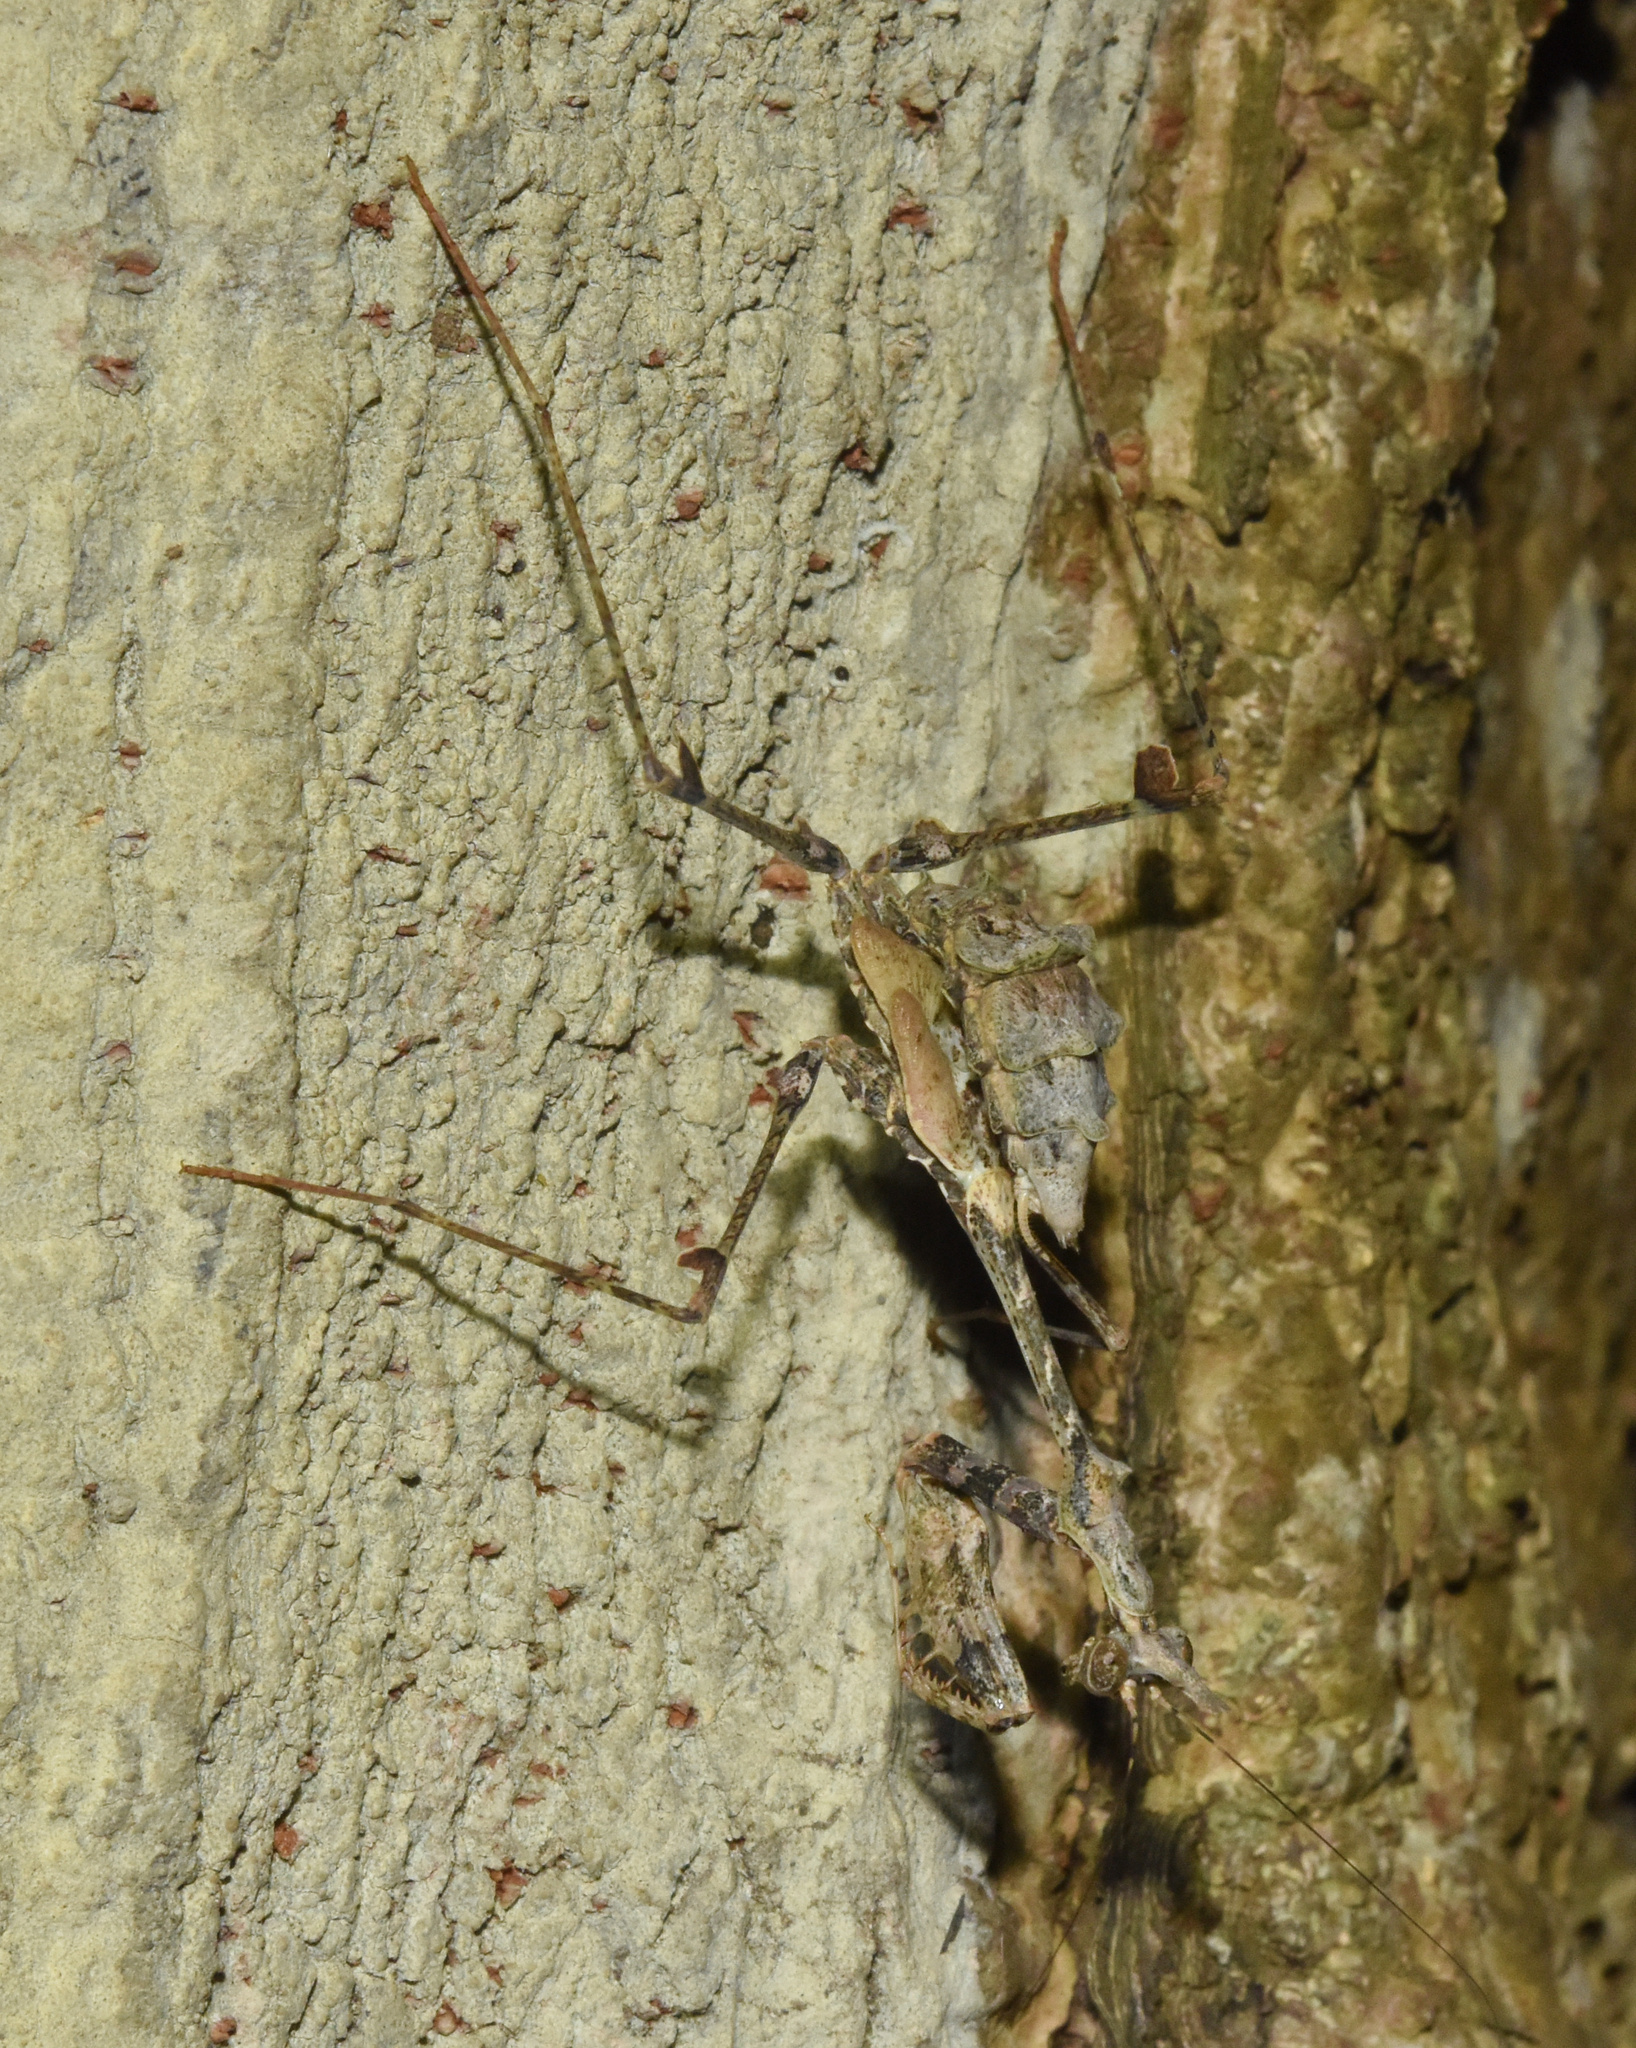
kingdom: Animalia
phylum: Arthropoda
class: Insecta
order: Mantodea
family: Hymenopodidae
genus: Sibylla
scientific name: Sibylla pretiosa
